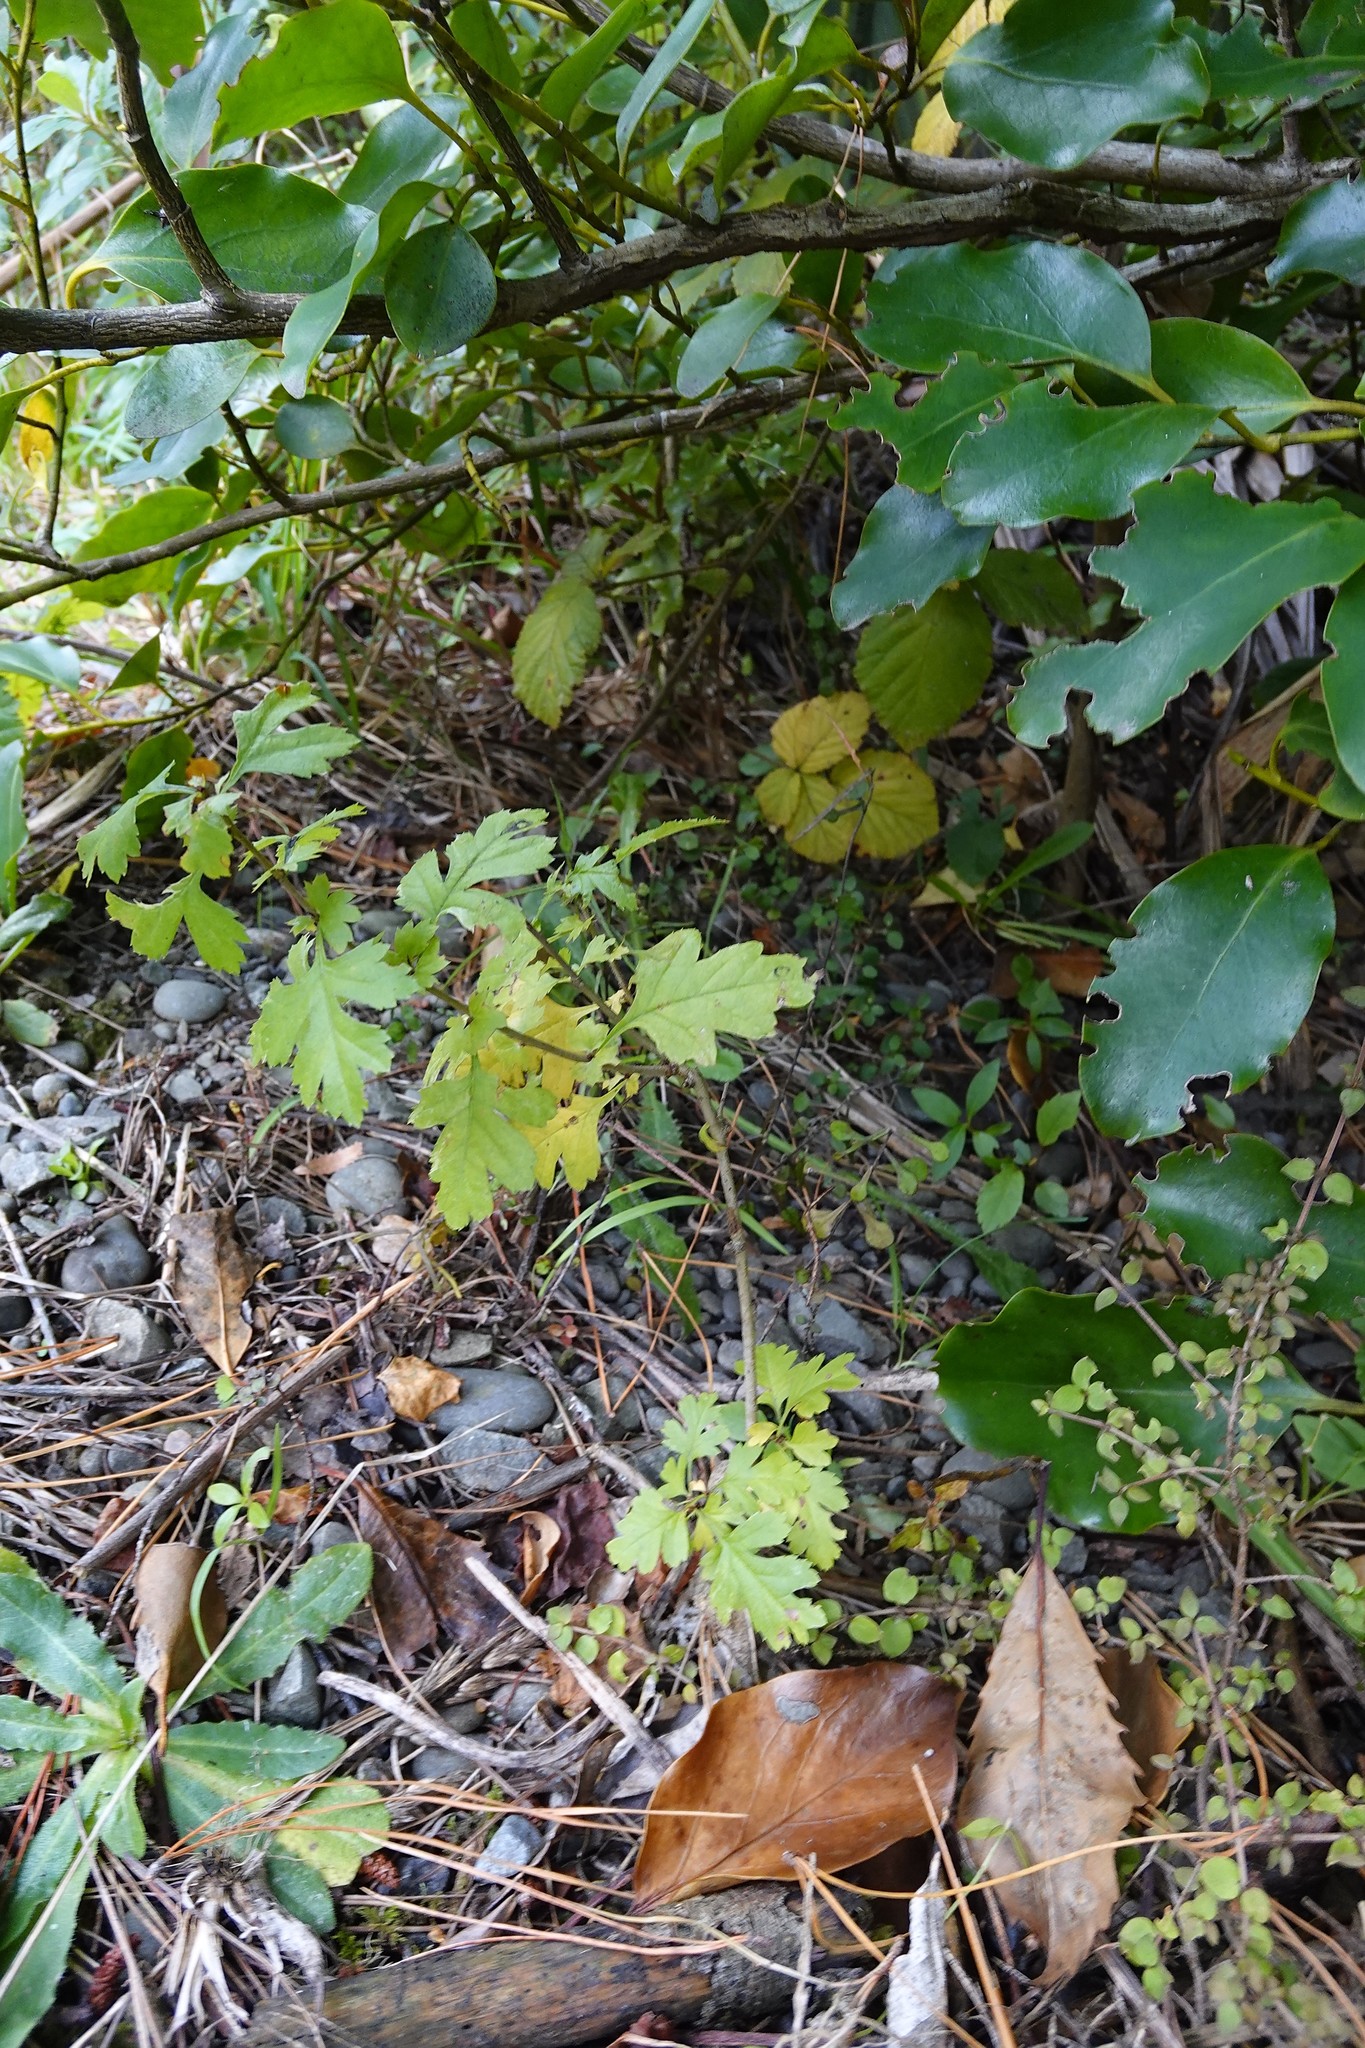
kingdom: Plantae
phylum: Tracheophyta
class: Magnoliopsida
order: Rosales
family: Rosaceae
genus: Crataegus
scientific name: Crataegus monogyna
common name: Hawthorn
